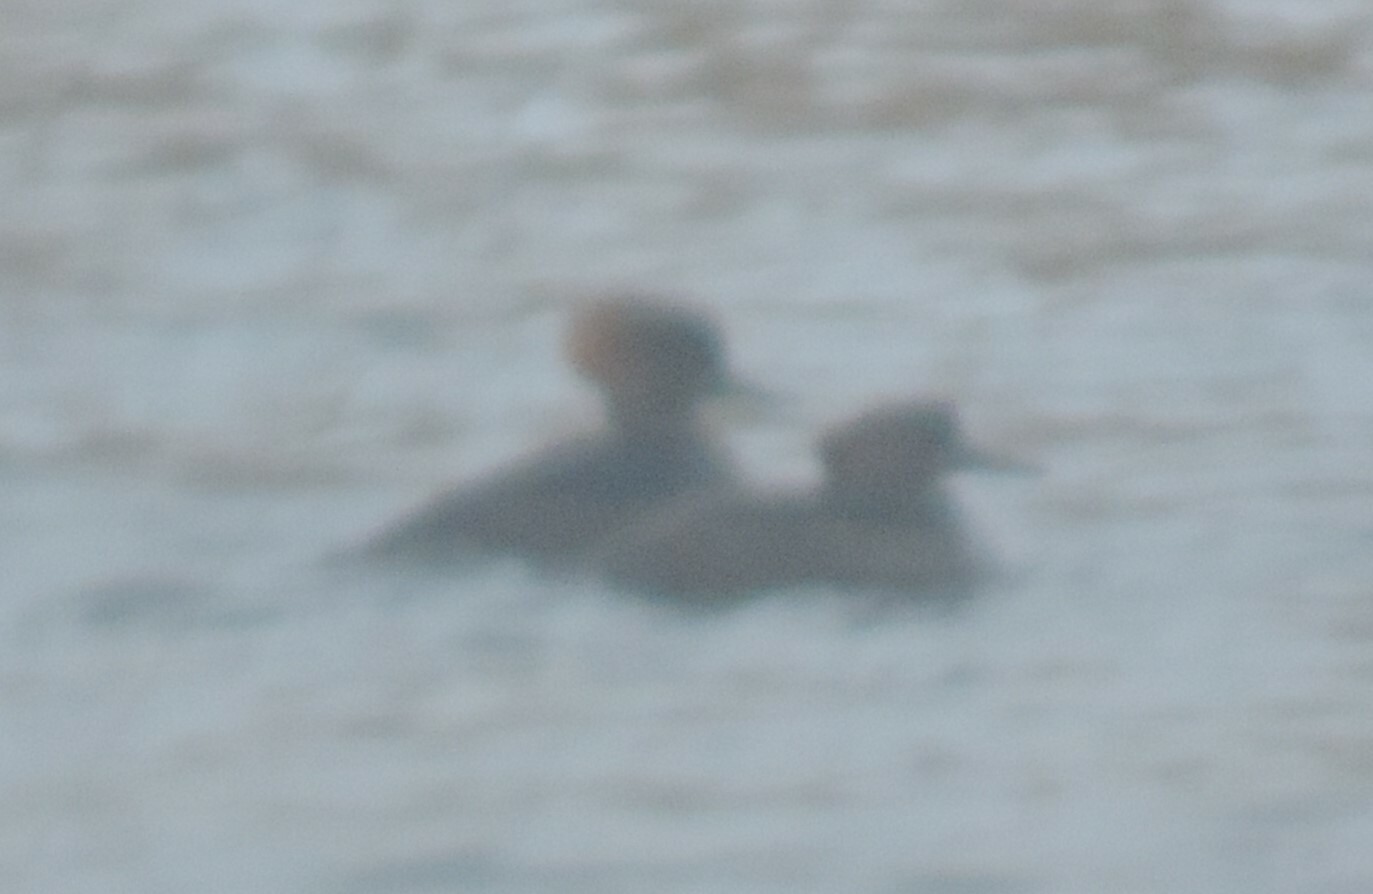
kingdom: Animalia
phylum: Chordata
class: Aves
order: Anseriformes
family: Anatidae
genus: Lophodytes
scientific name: Lophodytes cucullatus
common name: Hooded merganser
